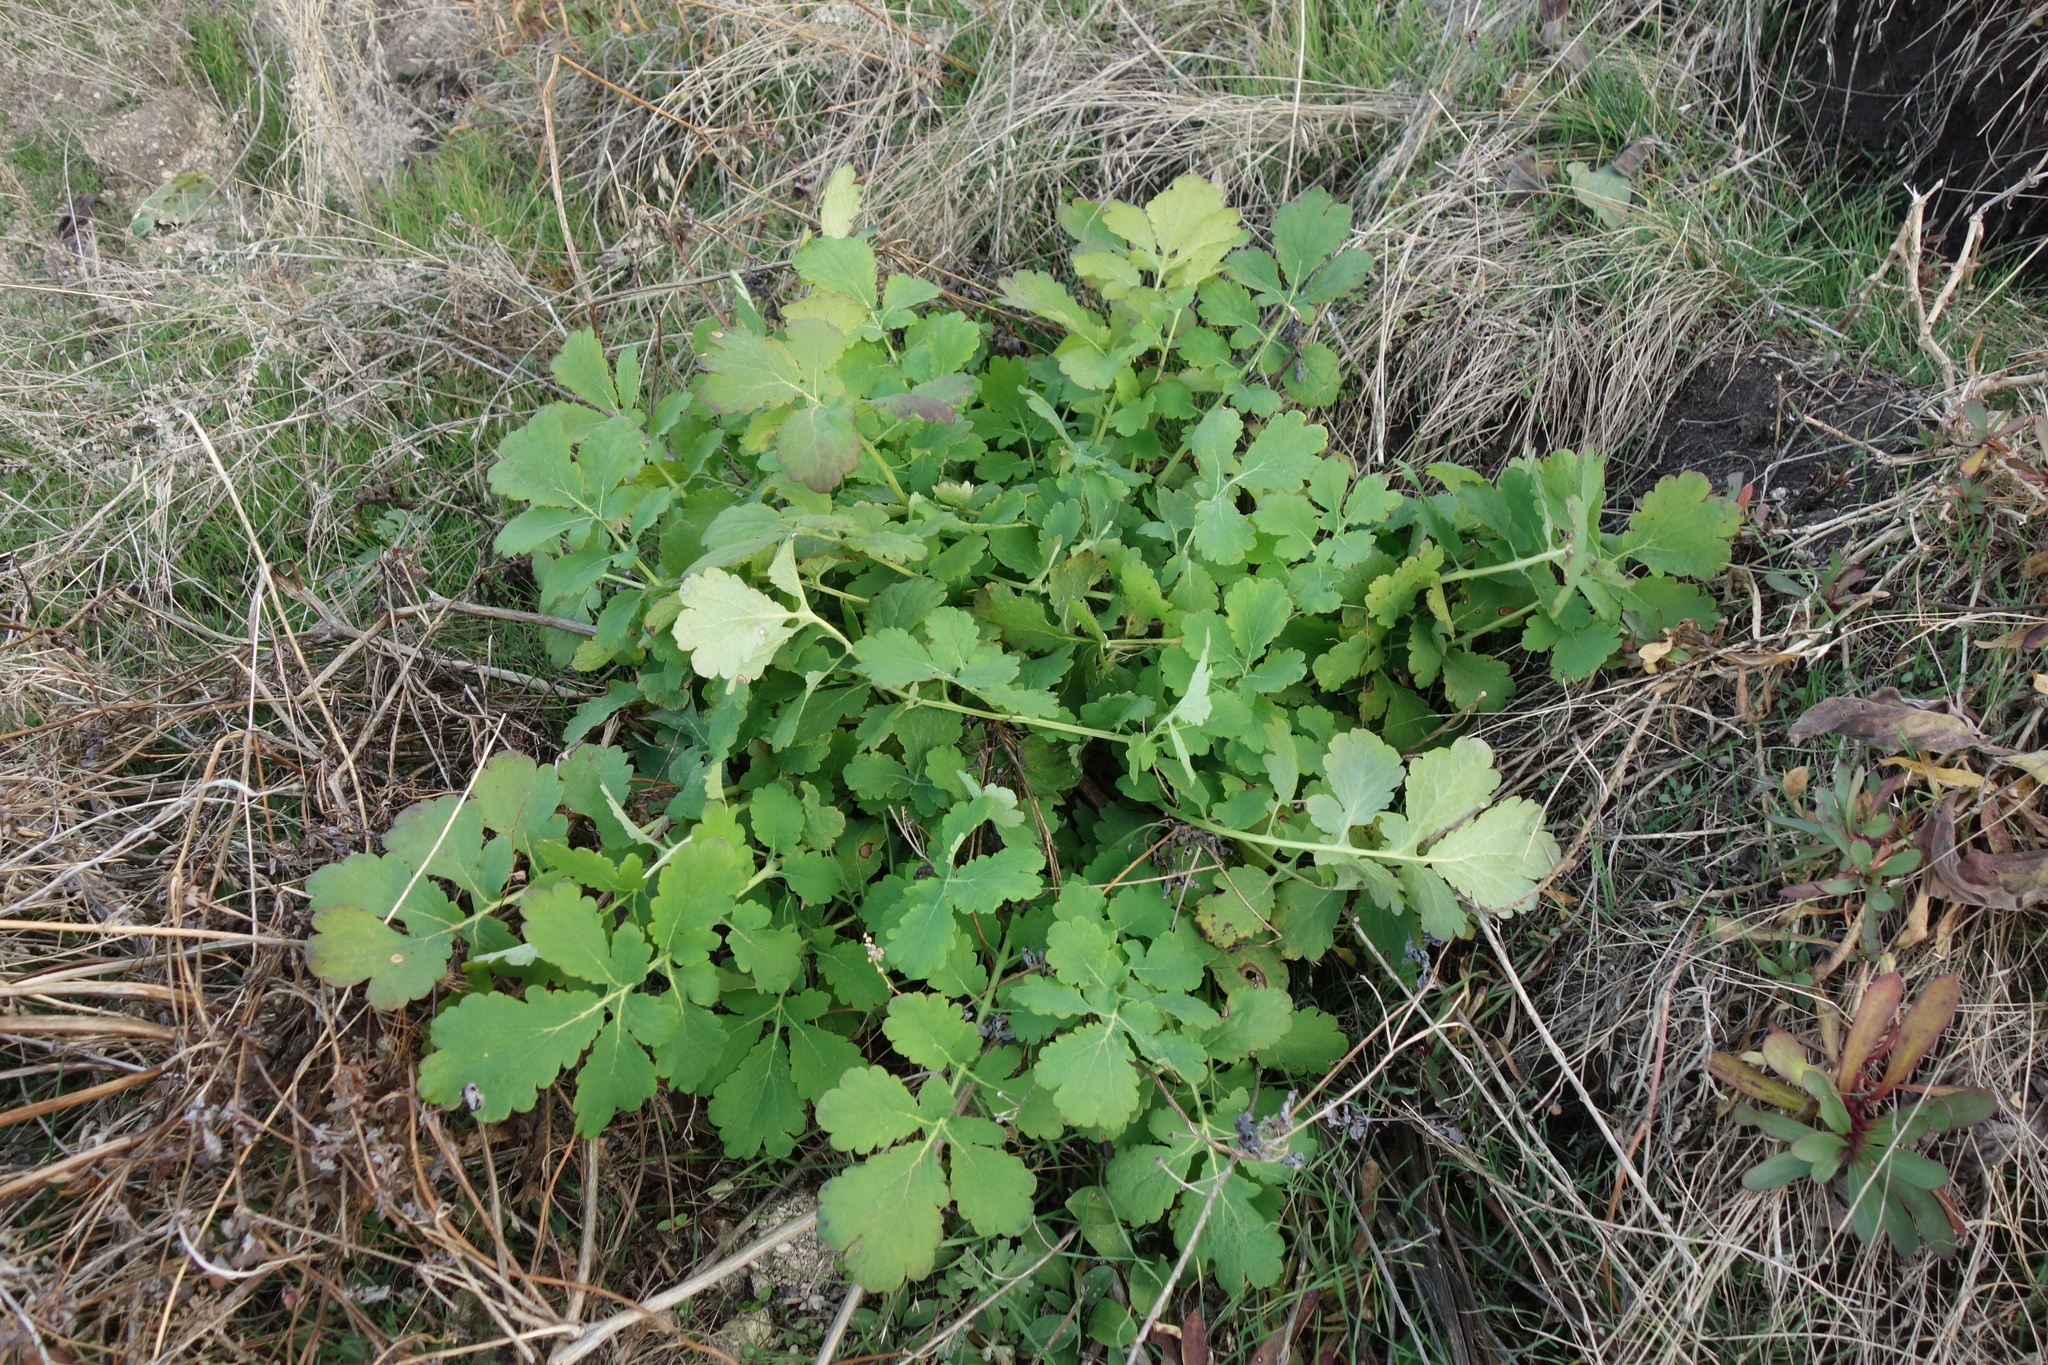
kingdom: Plantae
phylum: Tracheophyta
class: Magnoliopsida
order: Ranunculales
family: Papaveraceae
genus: Chelidonium
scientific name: Chelidonium majus
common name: Greater celandine
